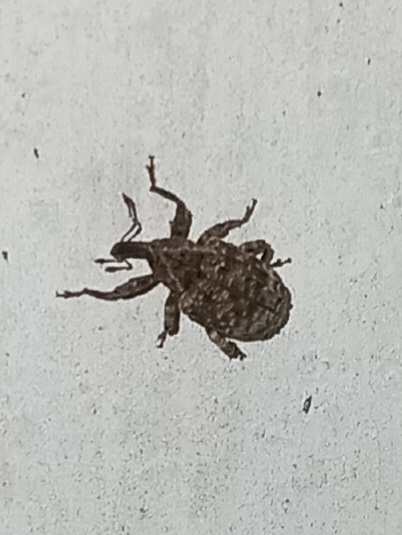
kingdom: Animalia
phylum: Arthropoda
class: Insecta
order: Coleoptera
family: Curculionidae
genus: Conotrachelus
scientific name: Conotrachelus seniculus
